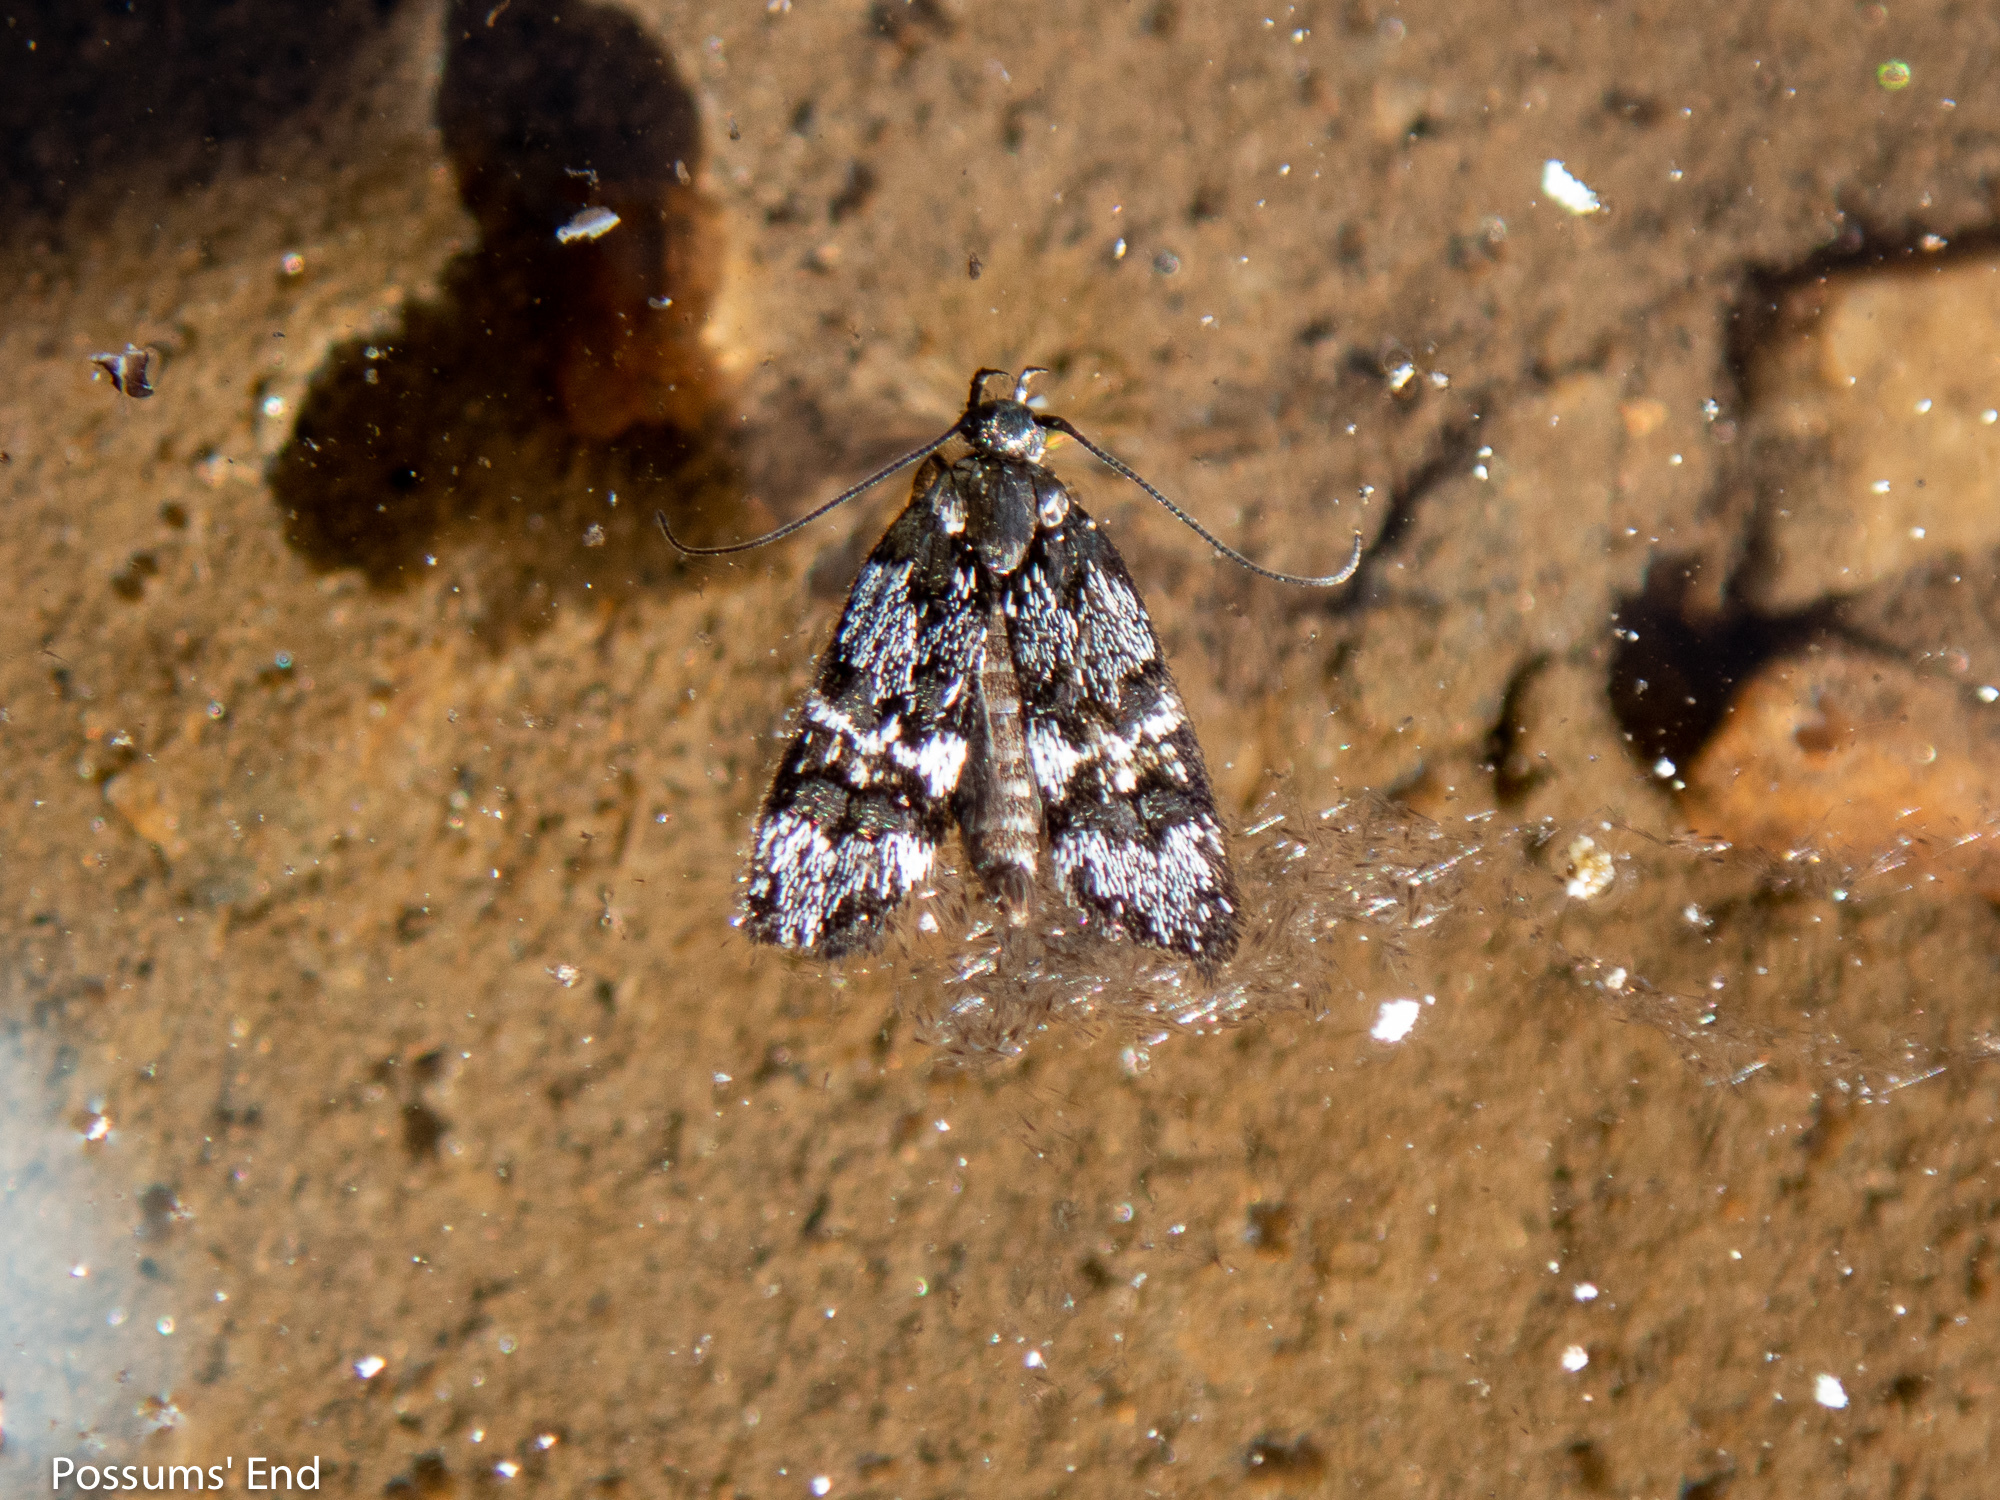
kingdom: Animalia
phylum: Arthropoda
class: Insecta
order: Lepidoptera
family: Oecophoridae
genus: Hierodoris
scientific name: Hierodoris polita
